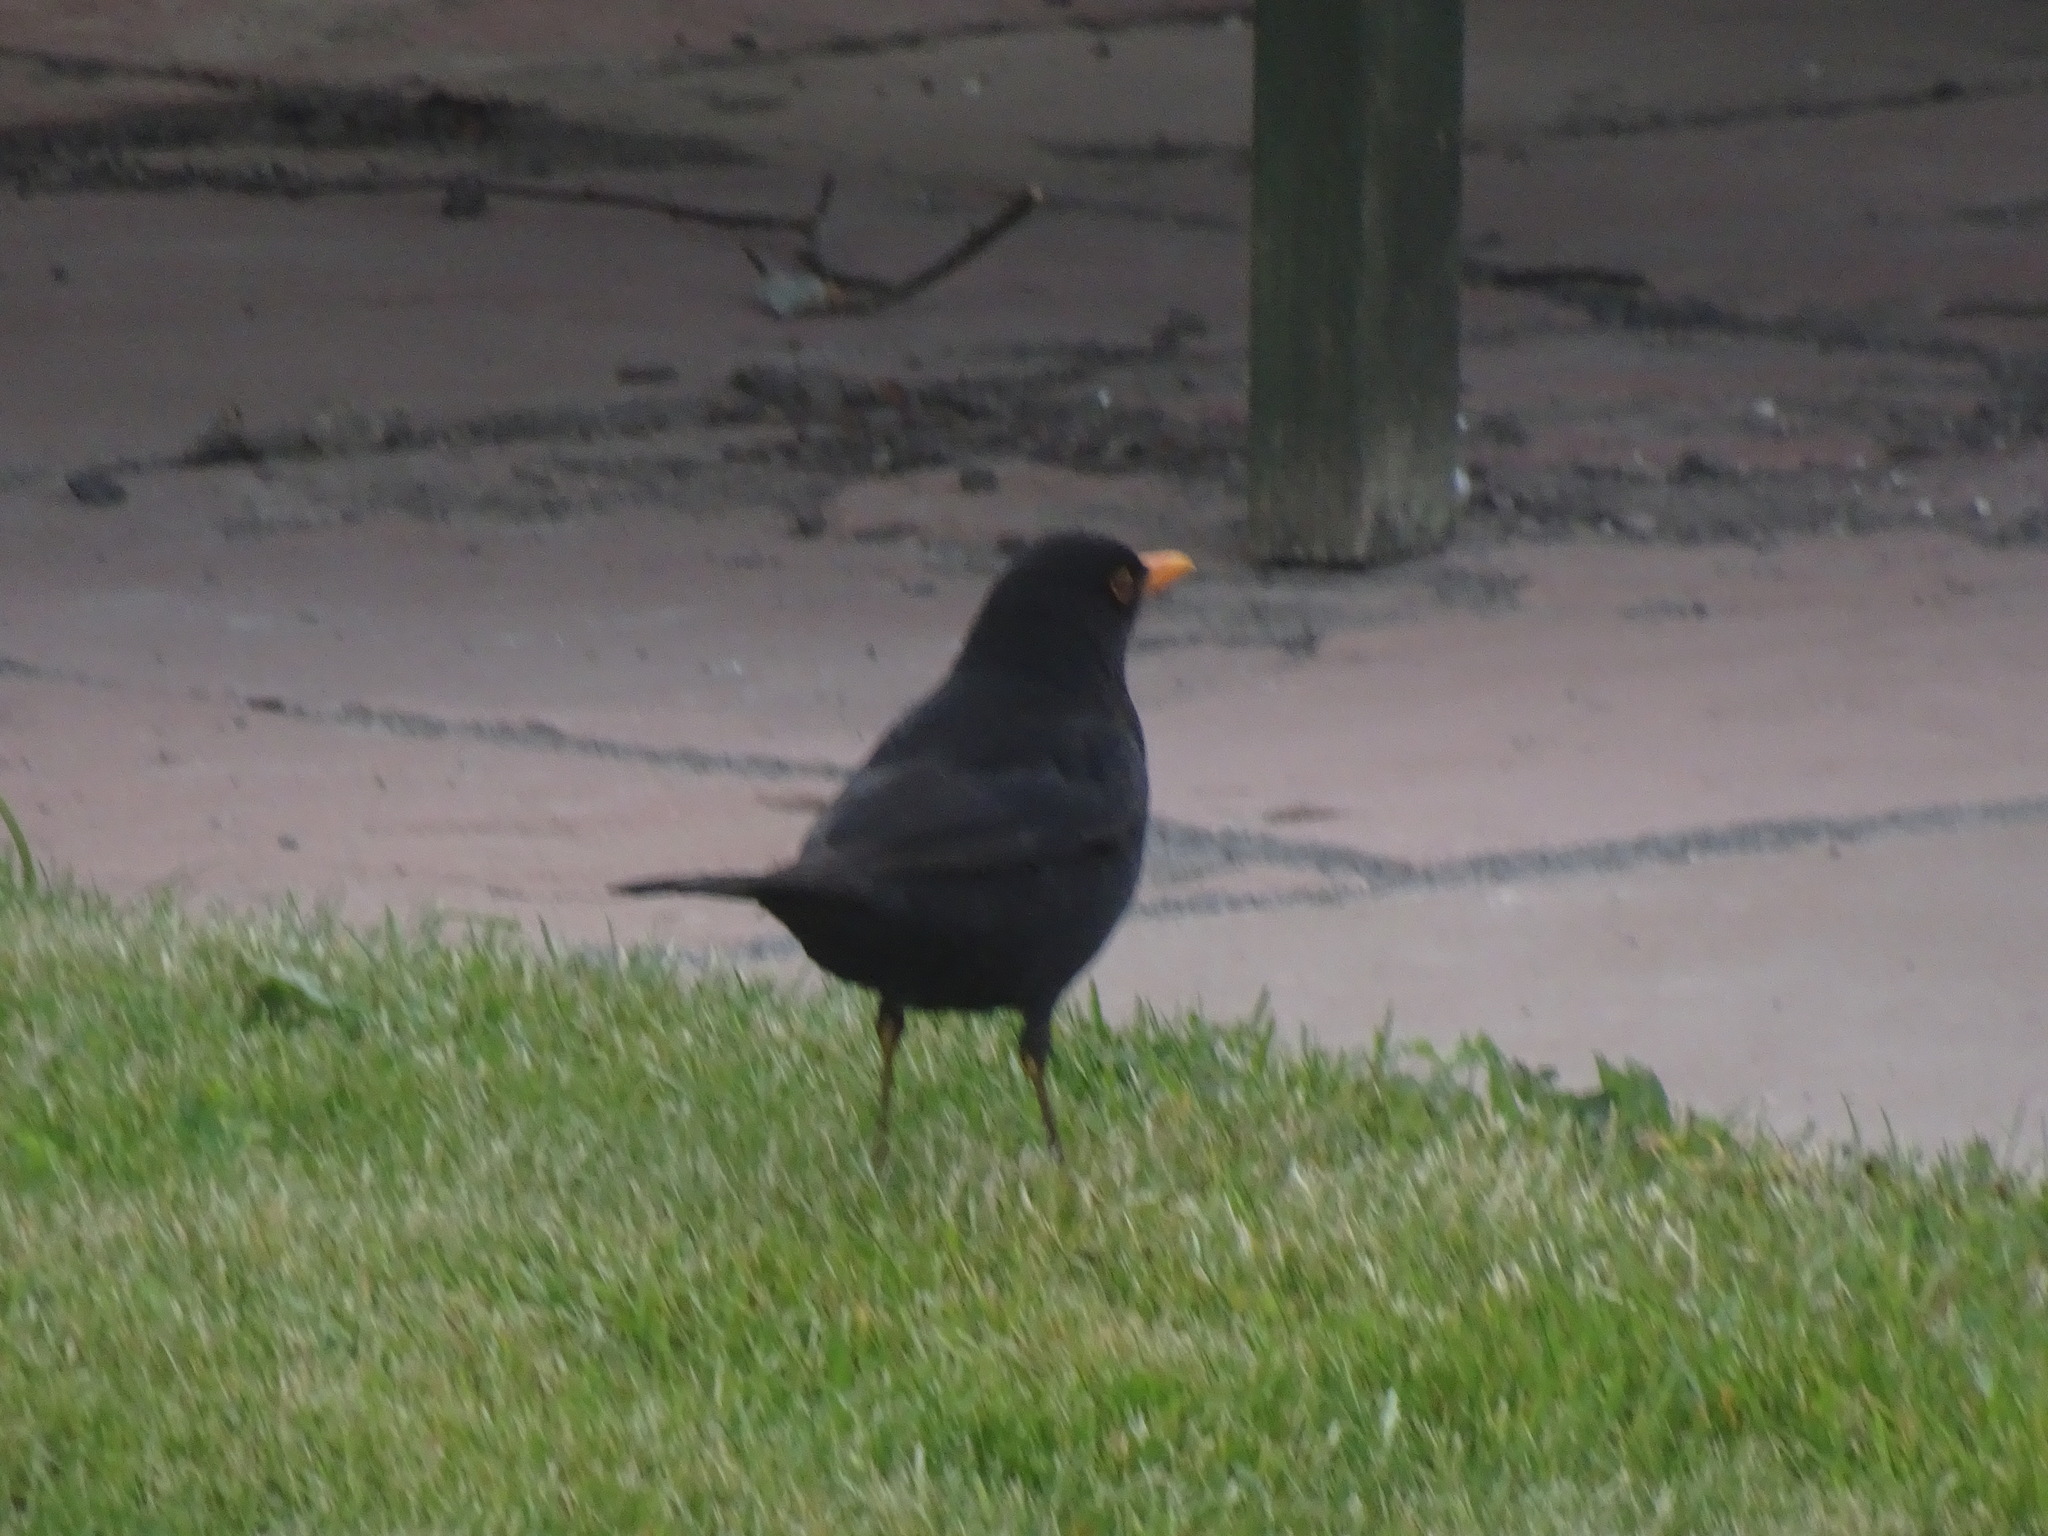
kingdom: Animalia
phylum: Chordata
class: Aves
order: Passeriformes
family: Turdidae
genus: Turdus
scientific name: Turdus merula
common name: Common blackbird
